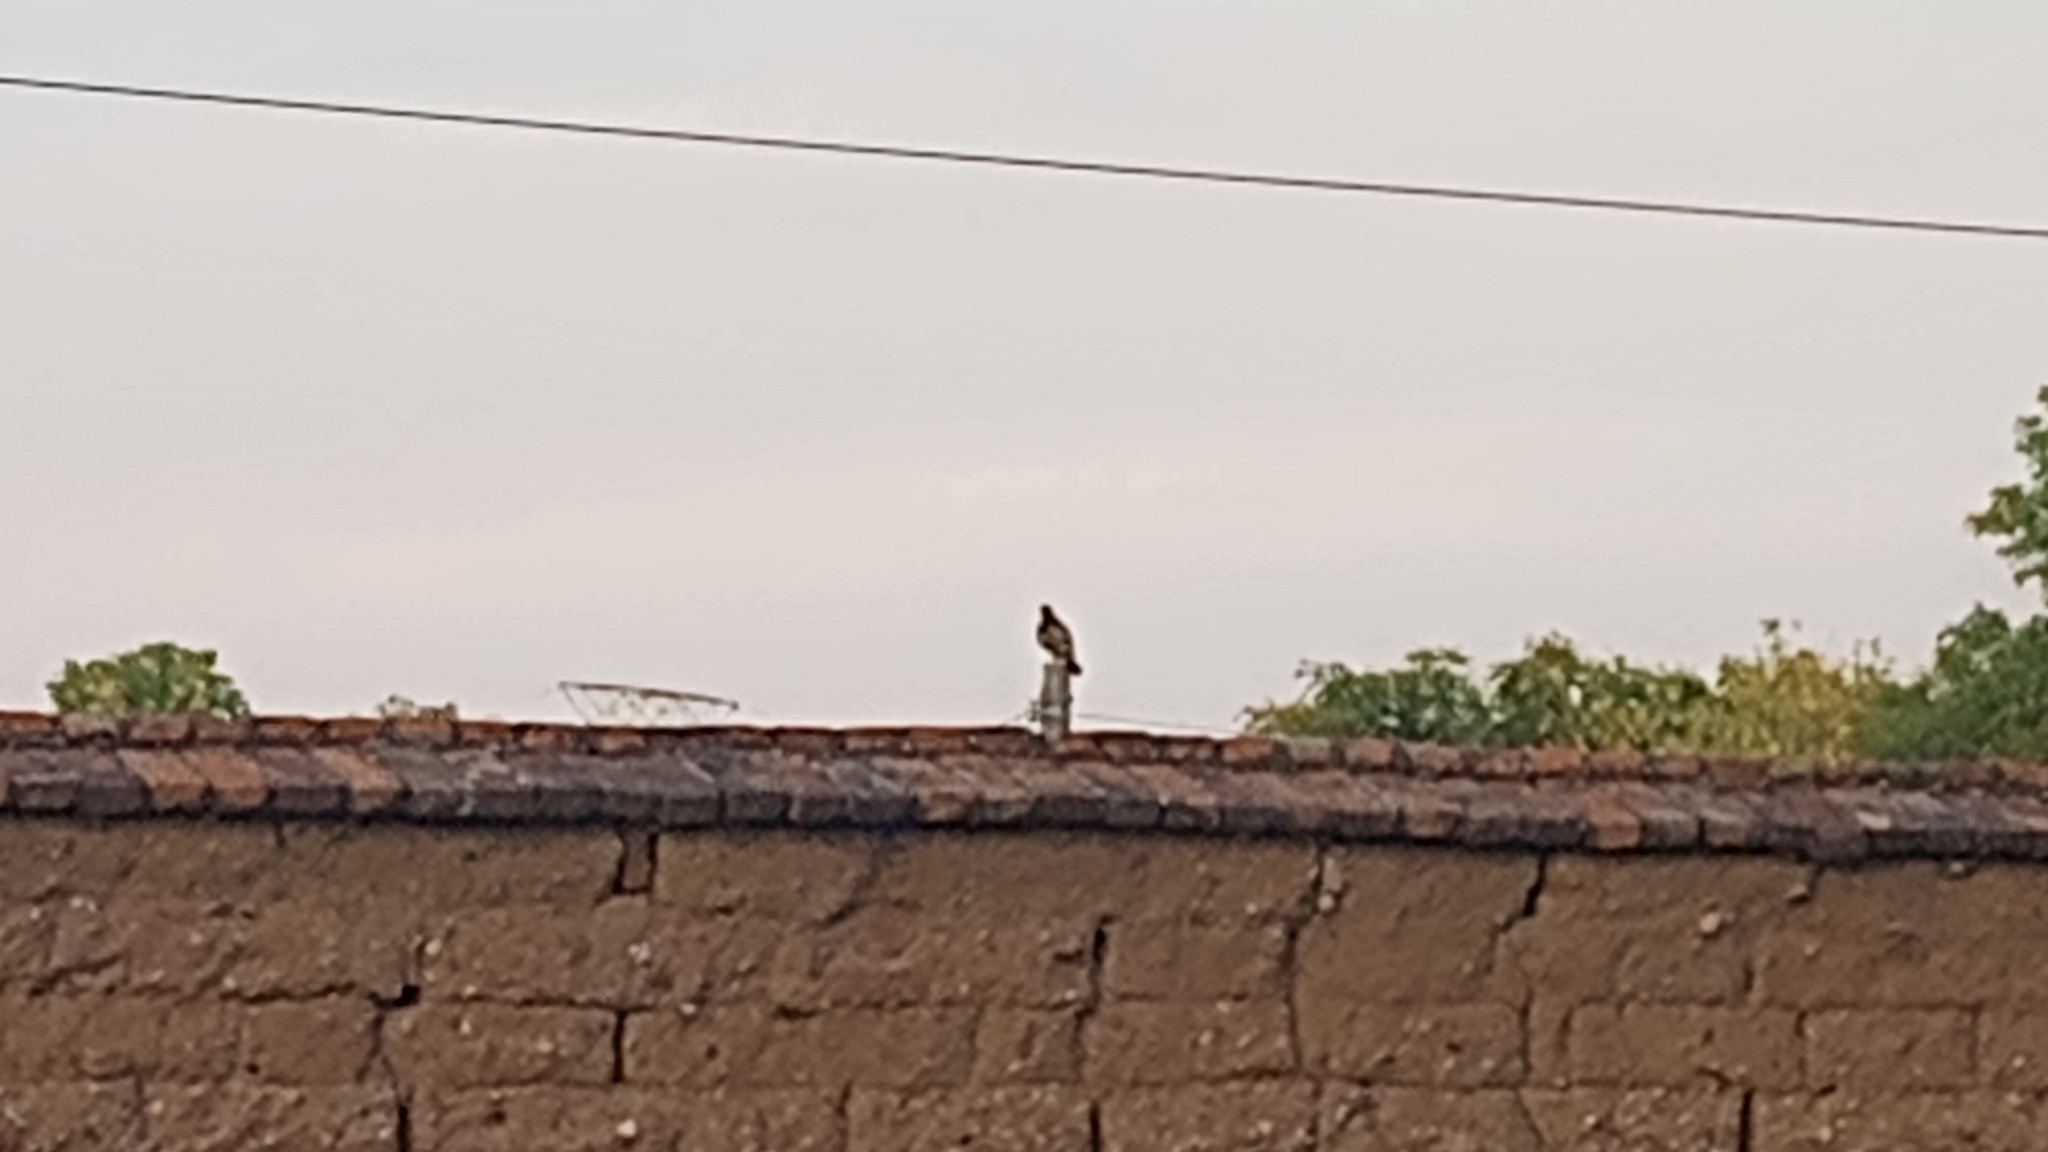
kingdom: Animalia
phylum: Chordata
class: Aves
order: Accipitriformes
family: Accipitridae
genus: Buteo
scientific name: Buteo jamaicensis
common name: Red-tailed hawk
